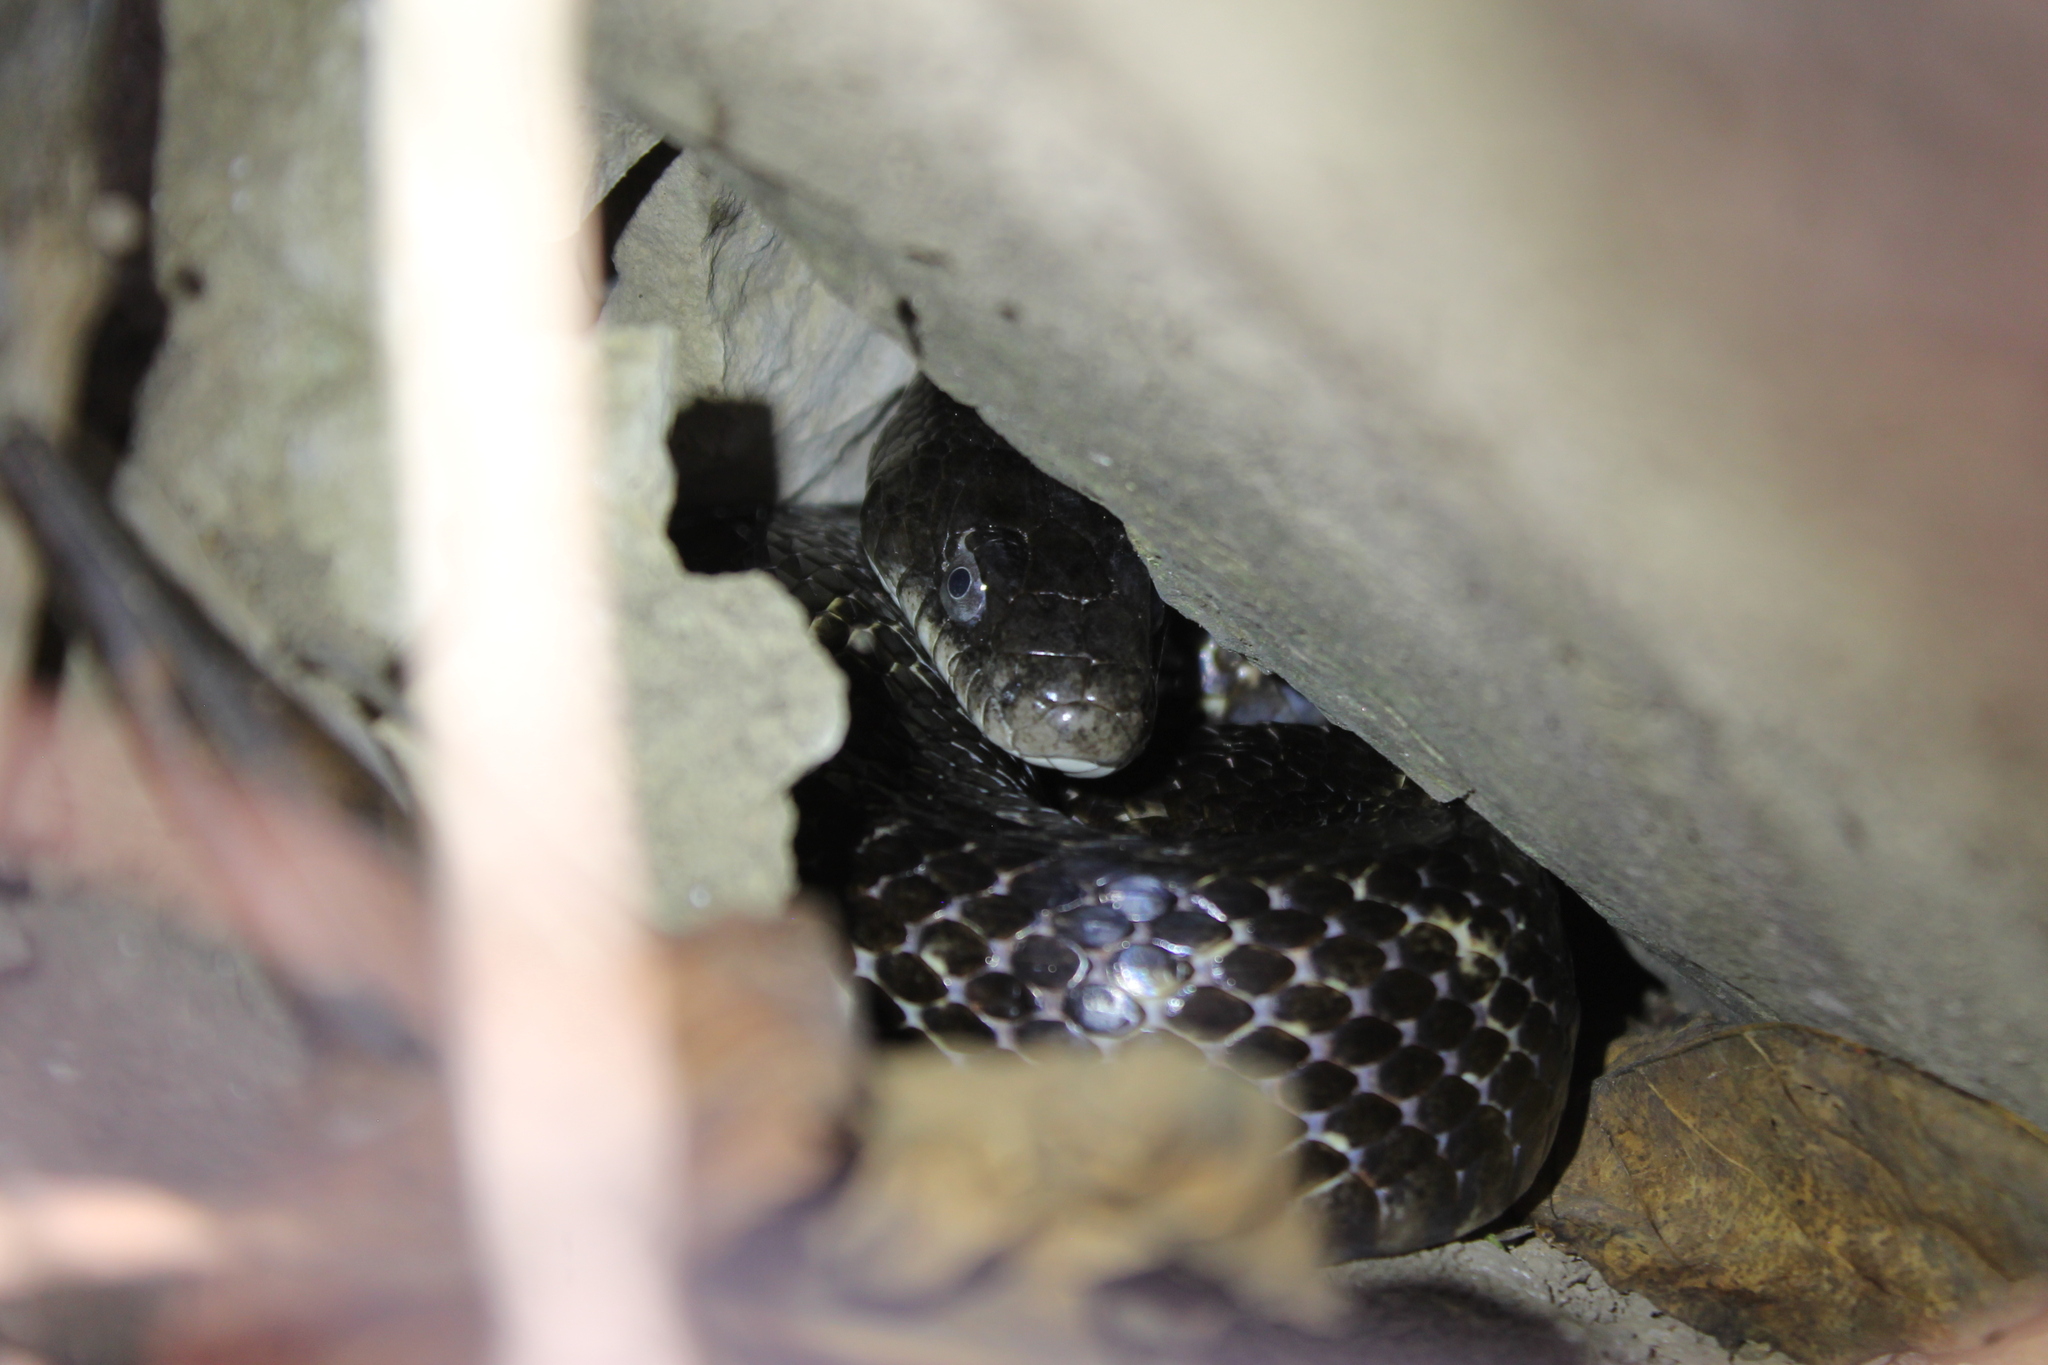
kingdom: Animalia
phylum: Chordata
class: Squamata
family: Colubridae
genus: Pantherophis
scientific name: Pantherophis spiloides
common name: Gray rat snake
